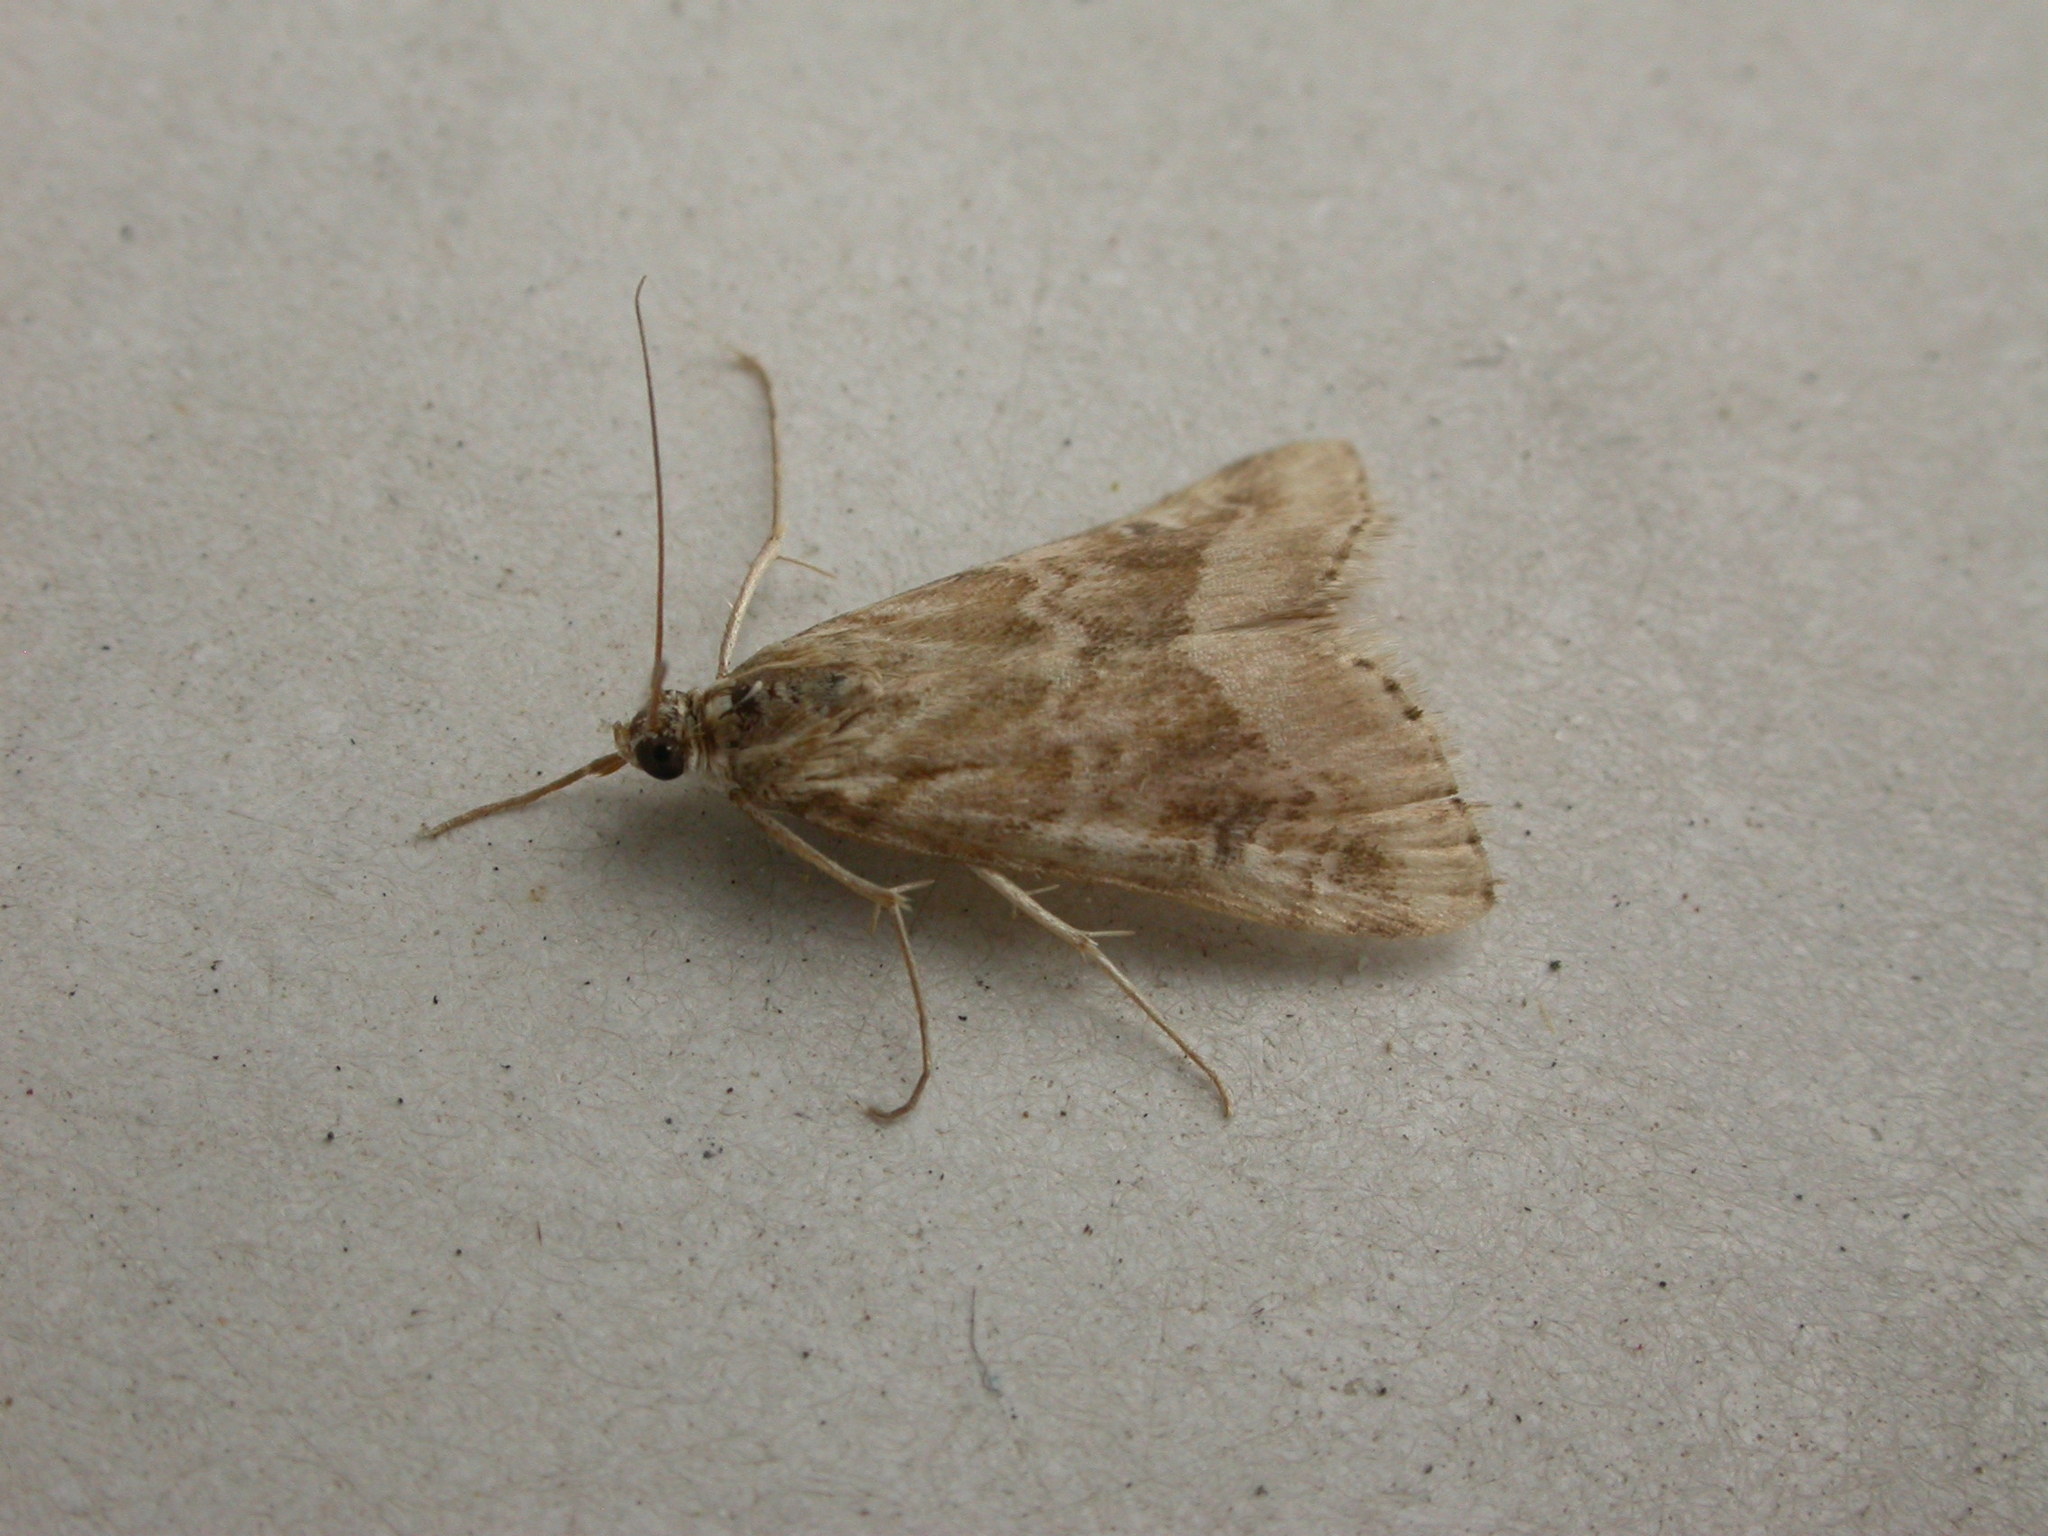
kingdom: Animalia
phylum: Arthropoda
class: Insecta
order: Lepidoptera
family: Crambidae
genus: Hellula
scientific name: Hellula hydralis
